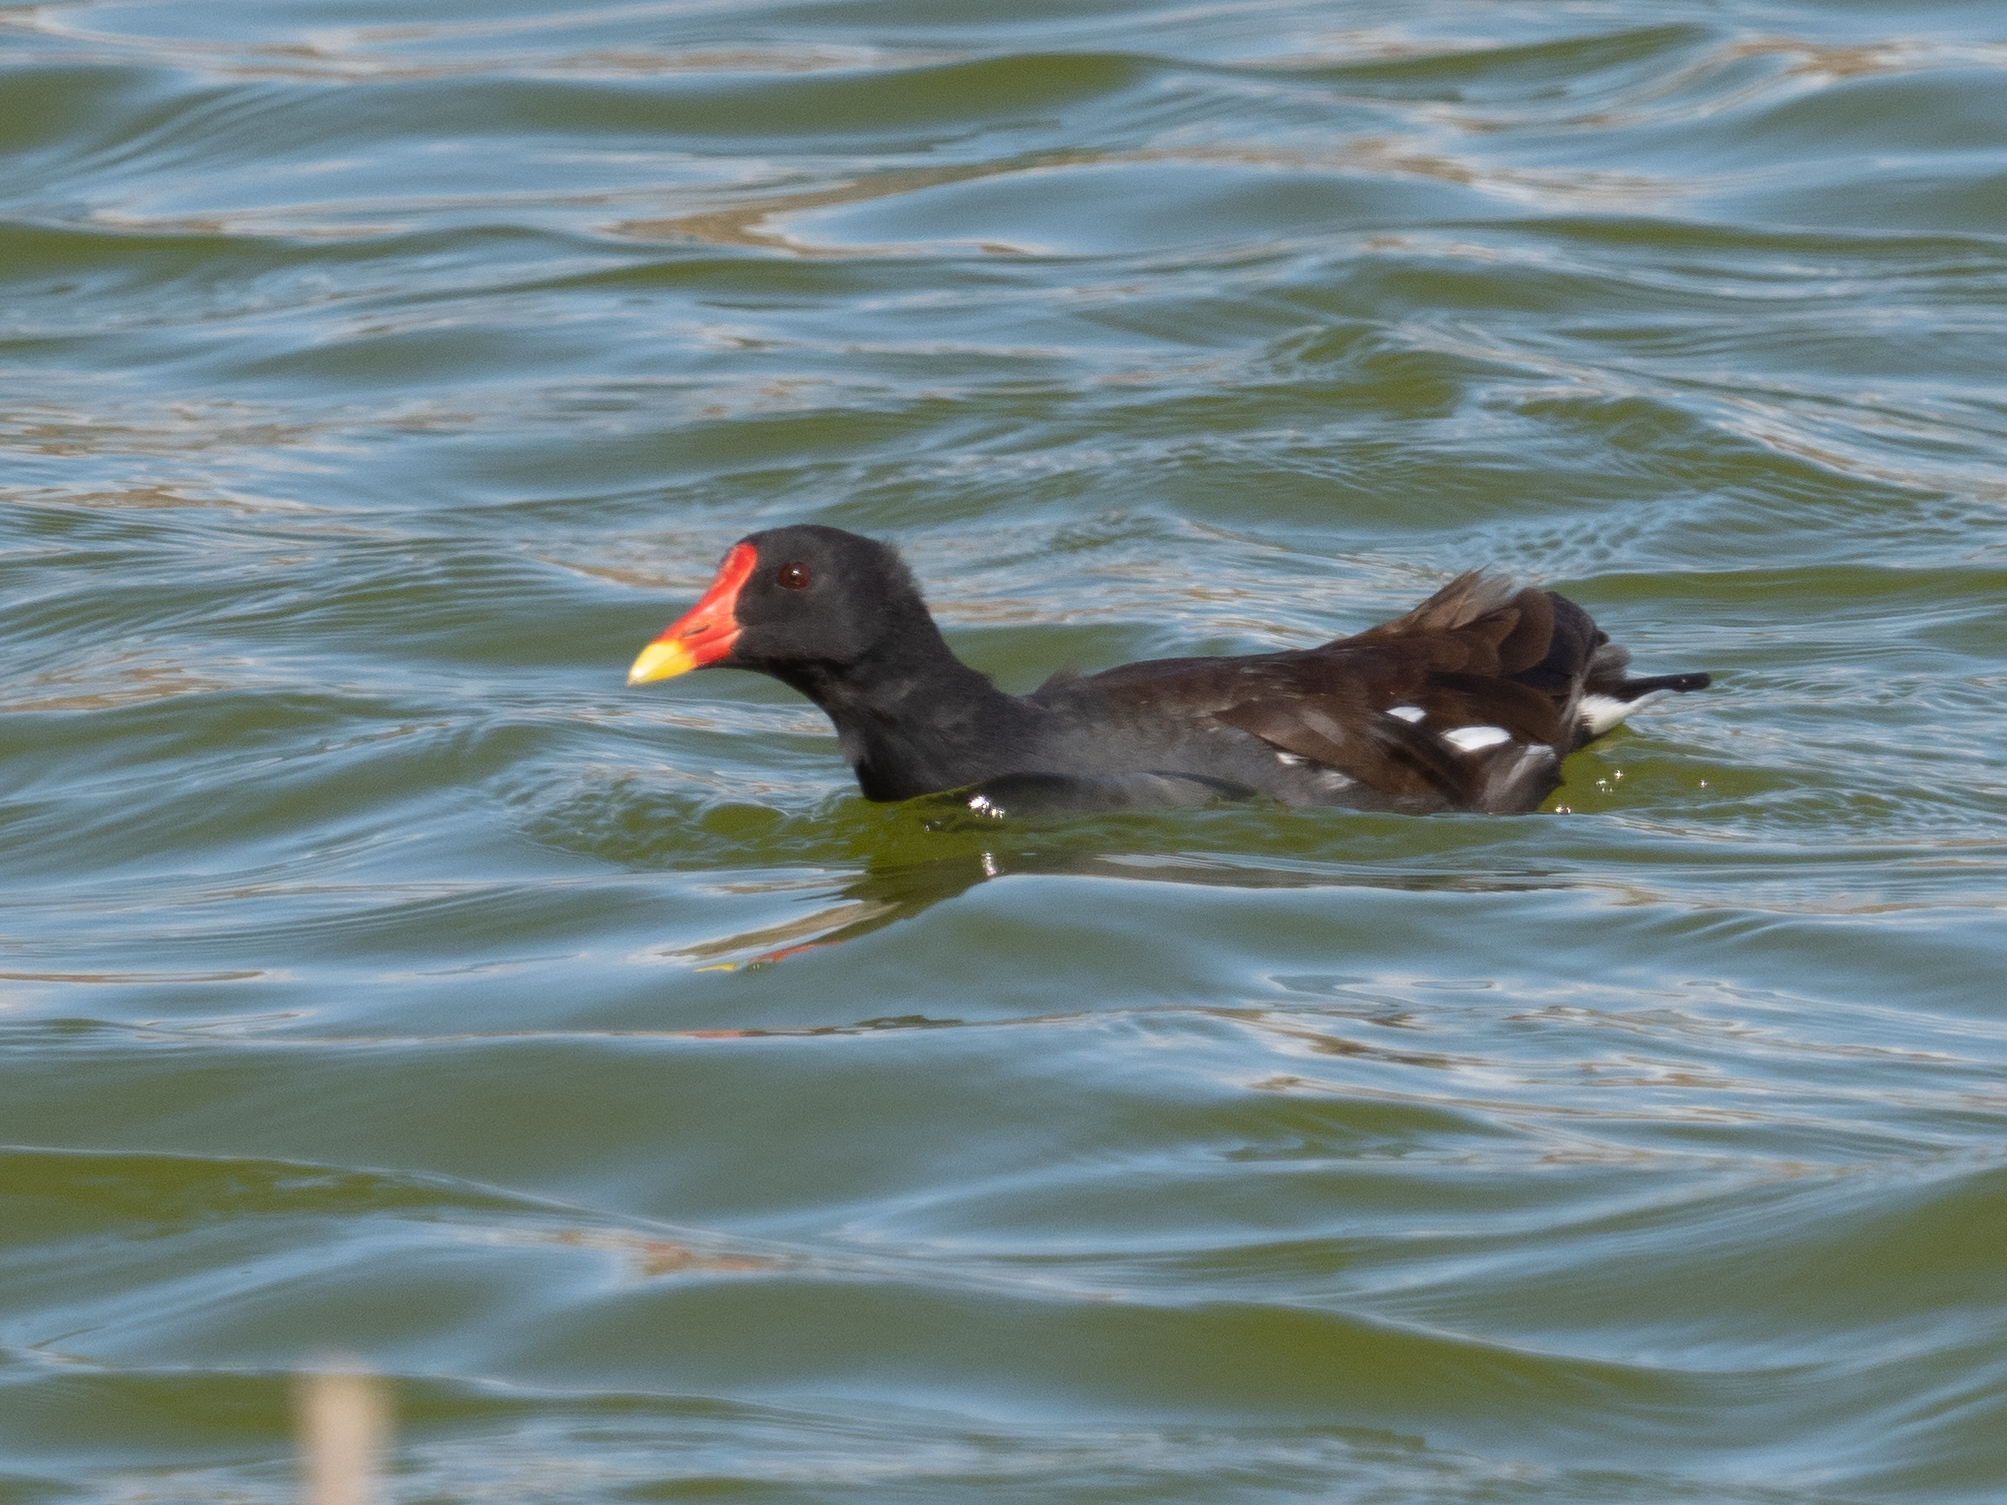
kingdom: Animalia
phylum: Chordata
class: Aves
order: Gruiformes
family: Rallidae
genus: Gallinula
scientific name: Gallinula chloropus
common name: Common moorhen
